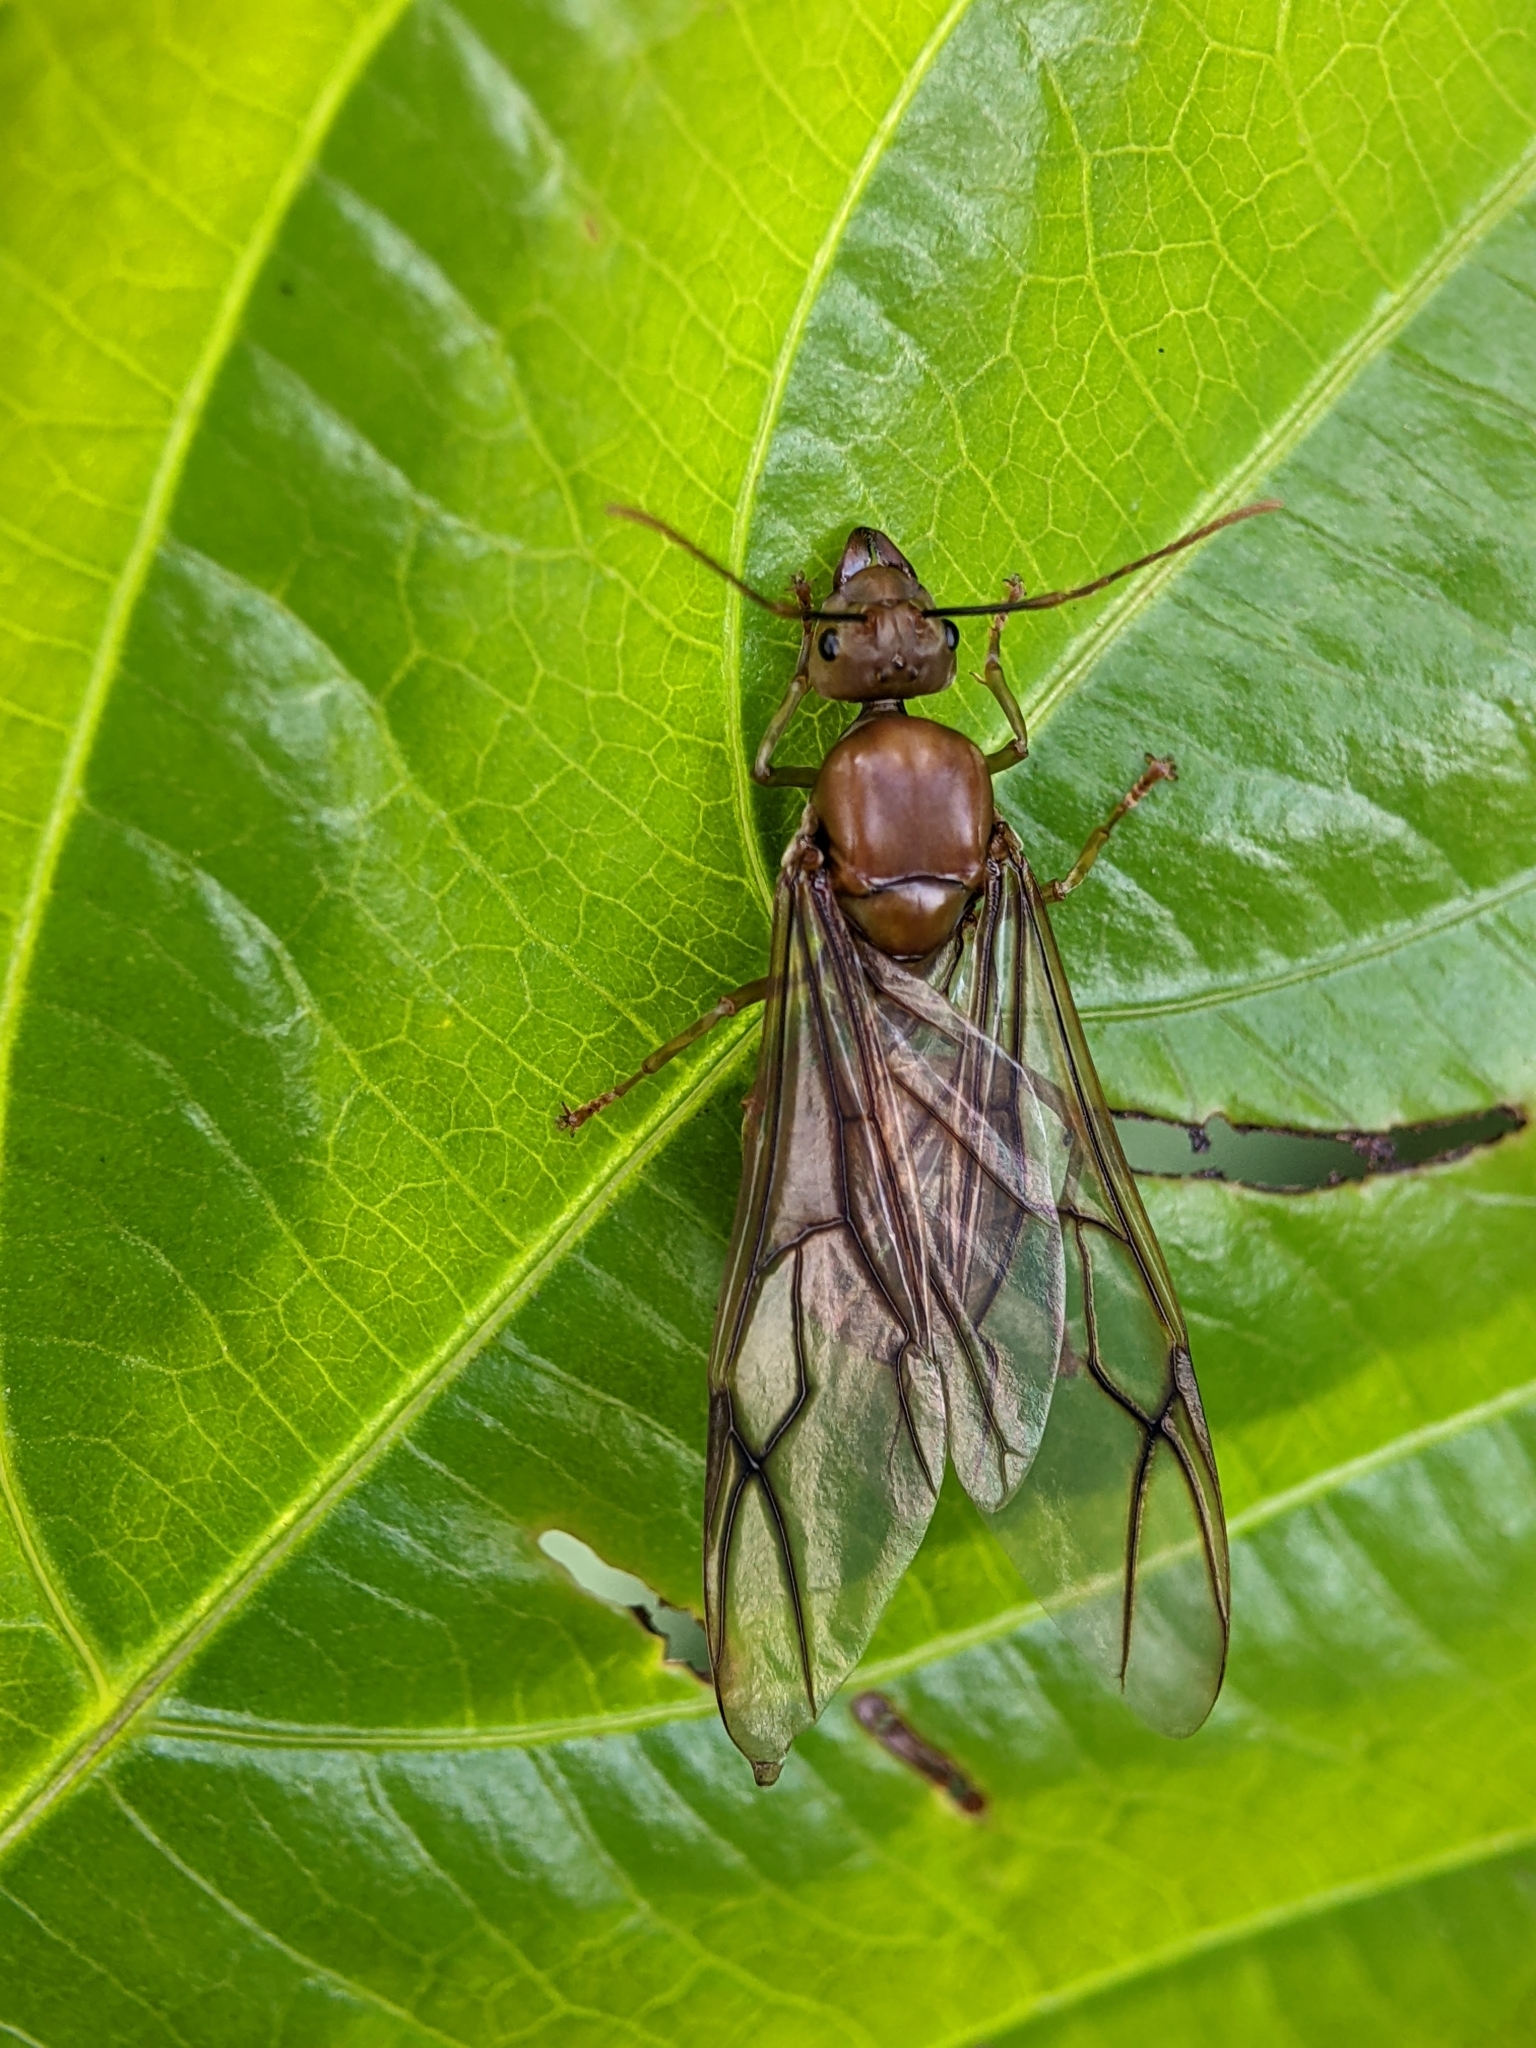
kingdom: Animalia
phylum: Arthropoda
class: Insecta
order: Hymenoptera
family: Formicidae
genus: Oecophylla
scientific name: Oecophylla smaragdina
